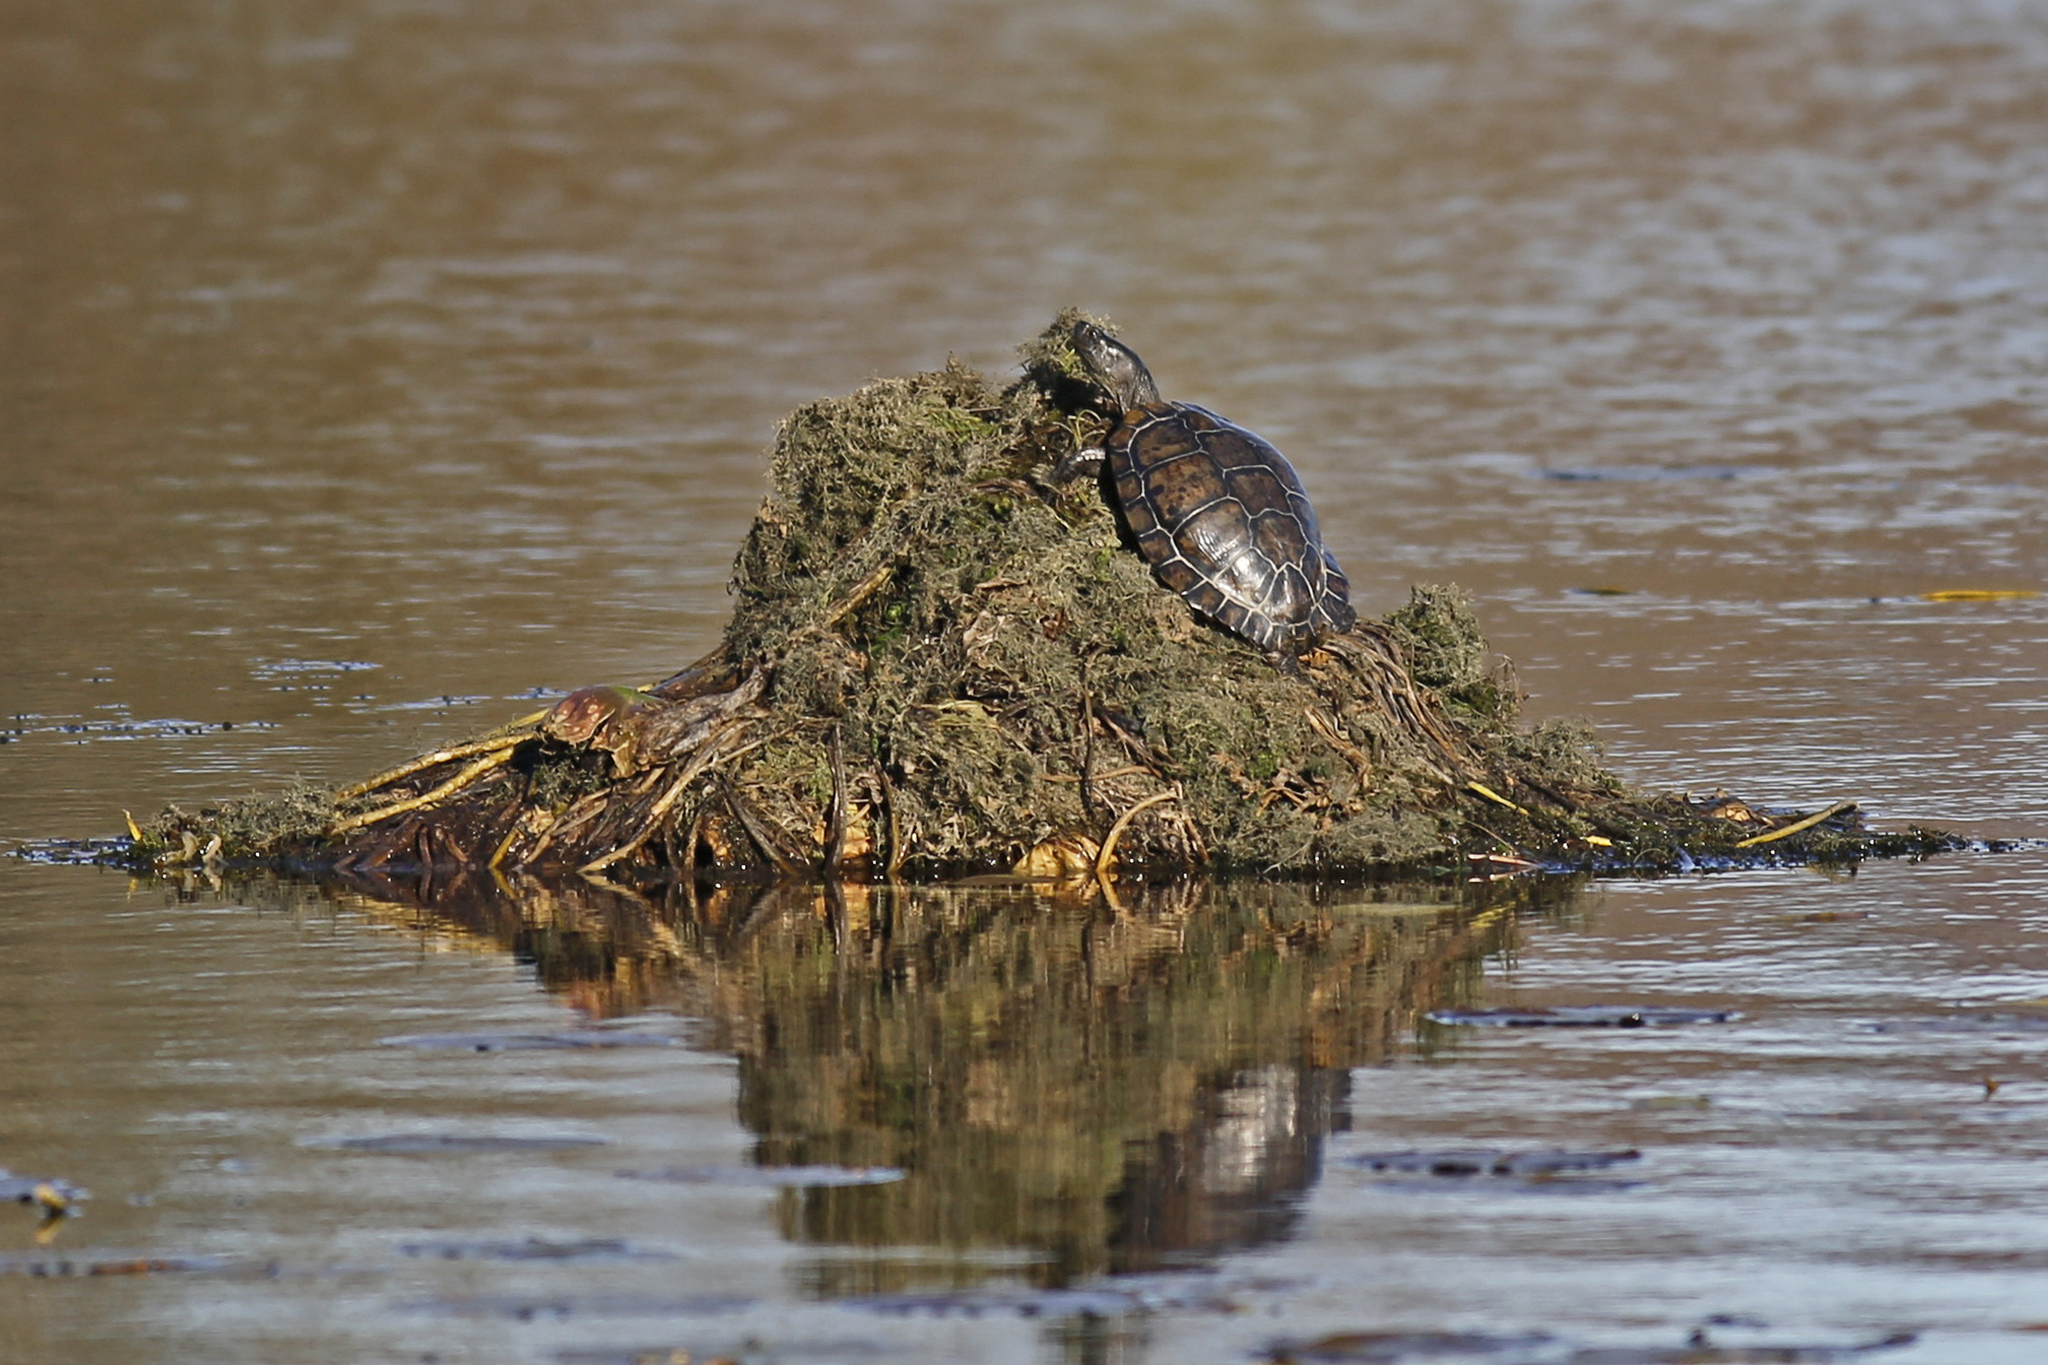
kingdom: Animalia
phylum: Chordata
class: Testudines
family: Emydidae
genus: Trachemys
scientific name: Trachemys scripta
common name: Slider
